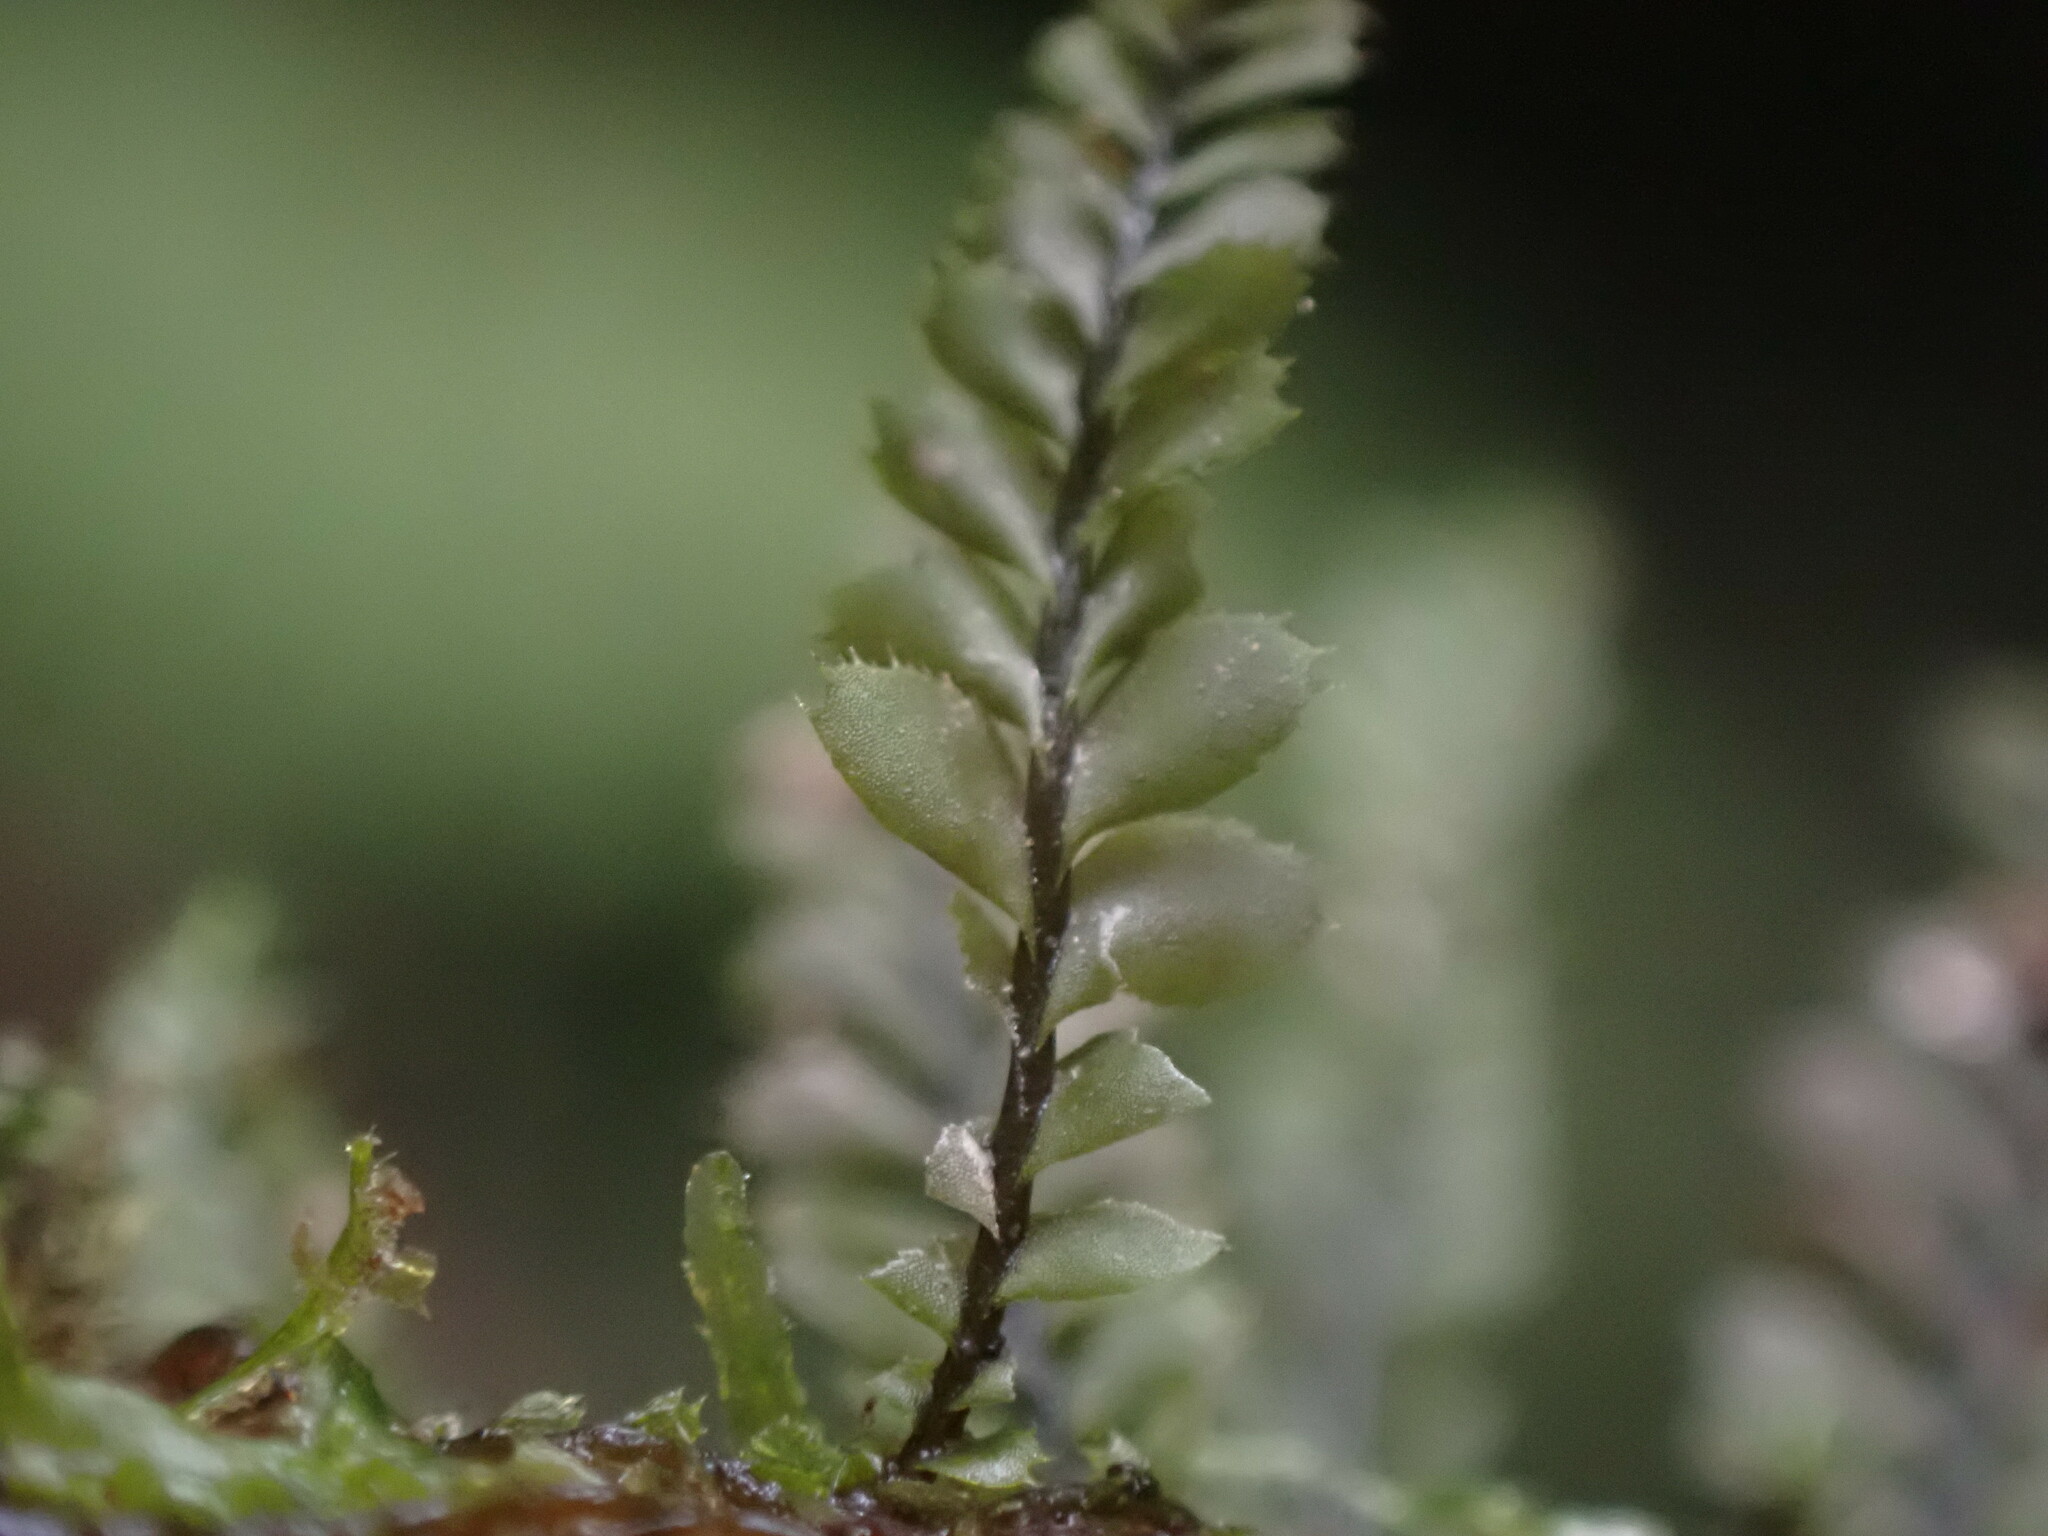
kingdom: Plantae
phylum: Marchantiophyta
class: Jungermanniopsida
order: Jungermanniales
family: Plagiochilaceae
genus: Plagiochila
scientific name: Plagiochila gracilis
